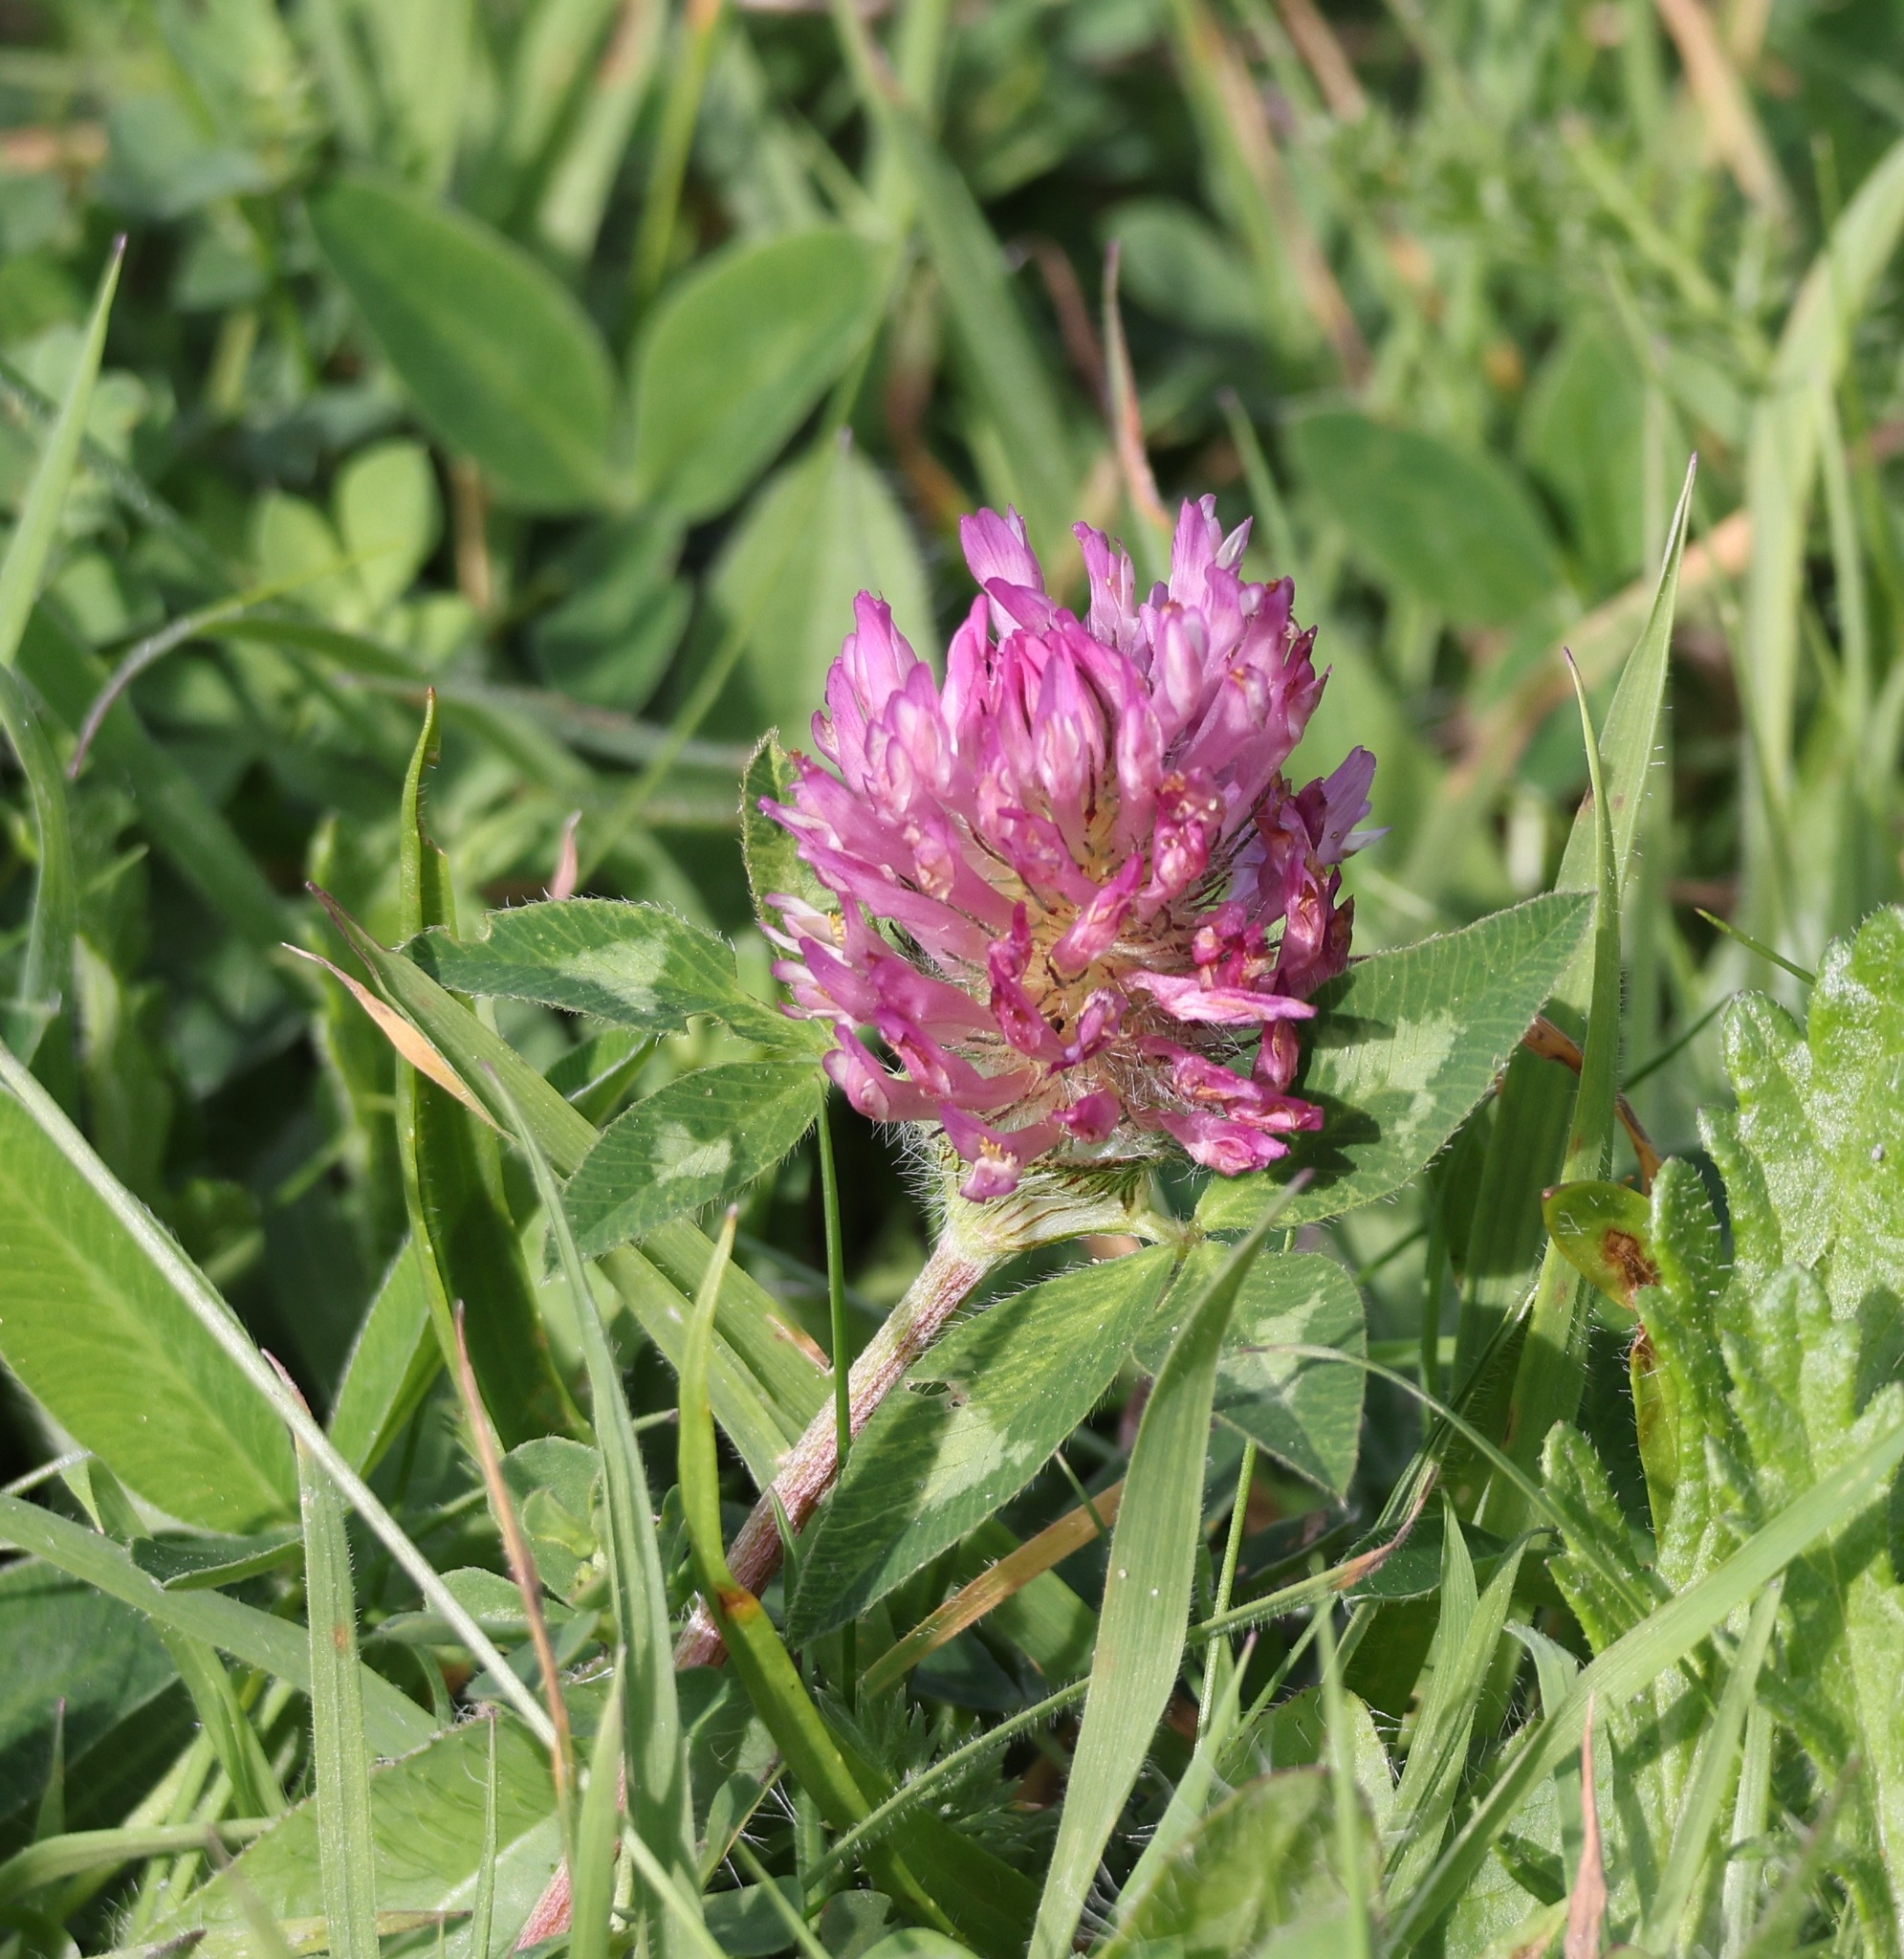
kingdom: Plantae
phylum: Tracheophyta
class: Magnoliopsida
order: Fabales
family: Fabaceae
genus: Trifolium
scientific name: Trifolium pratense
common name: Red clover
